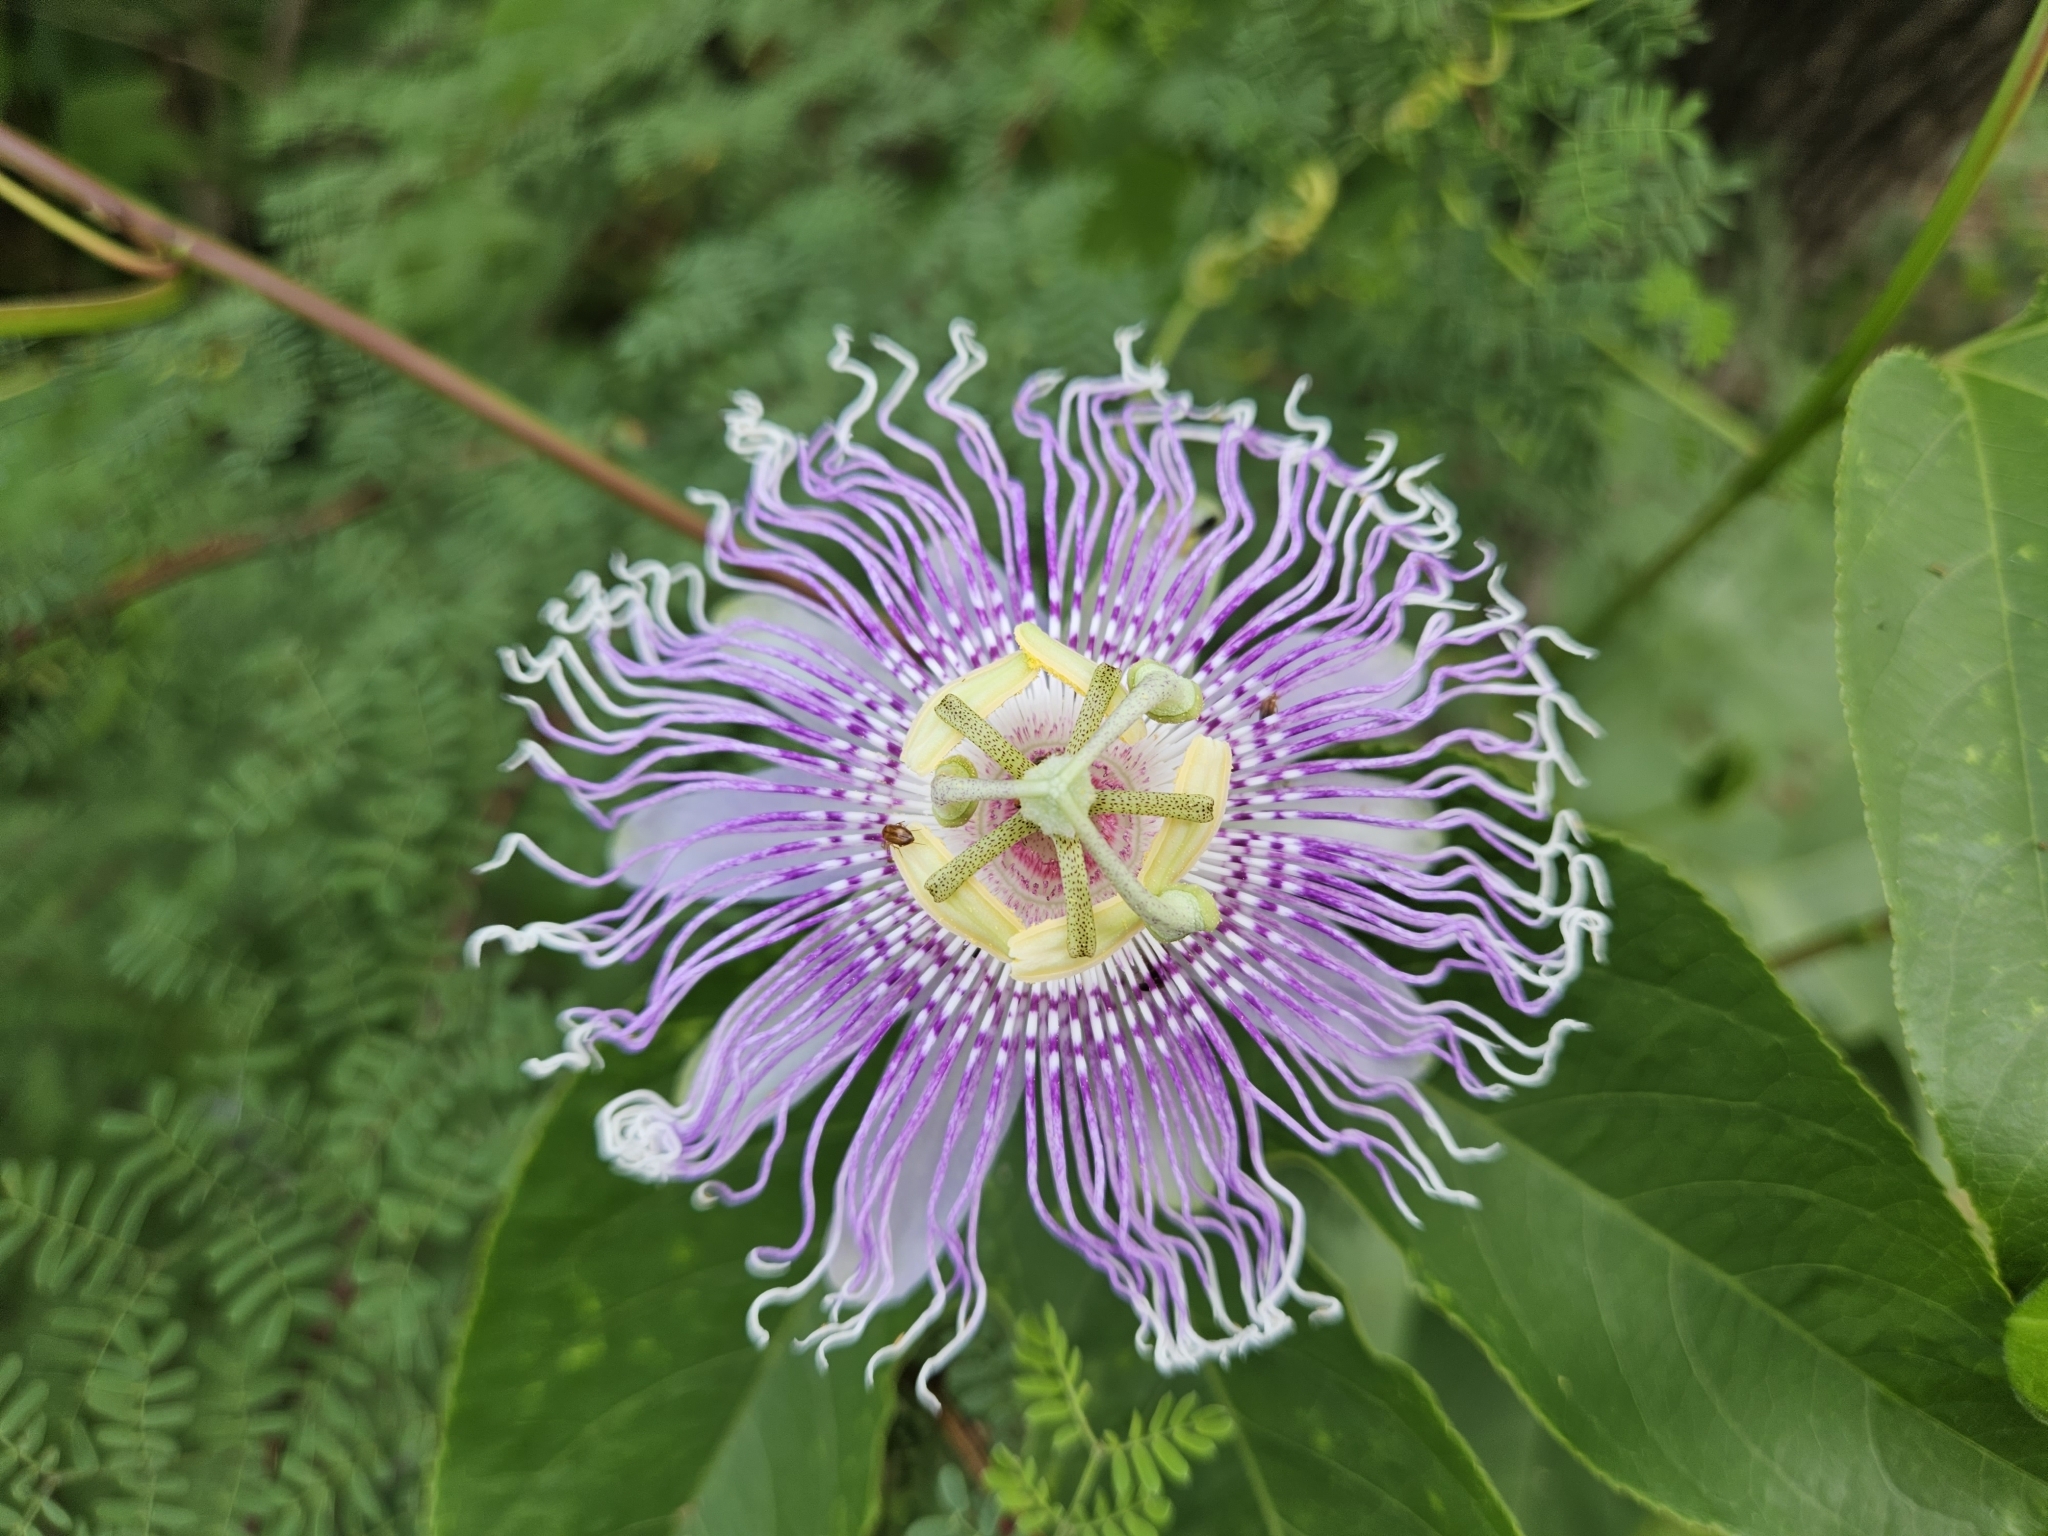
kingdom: Plantae
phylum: Tracheophyta
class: Magnoliopsida
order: Malpighiales
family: Passifloraceae
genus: Passiflora
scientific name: Passiflora incarnata
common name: Apricot-vine
